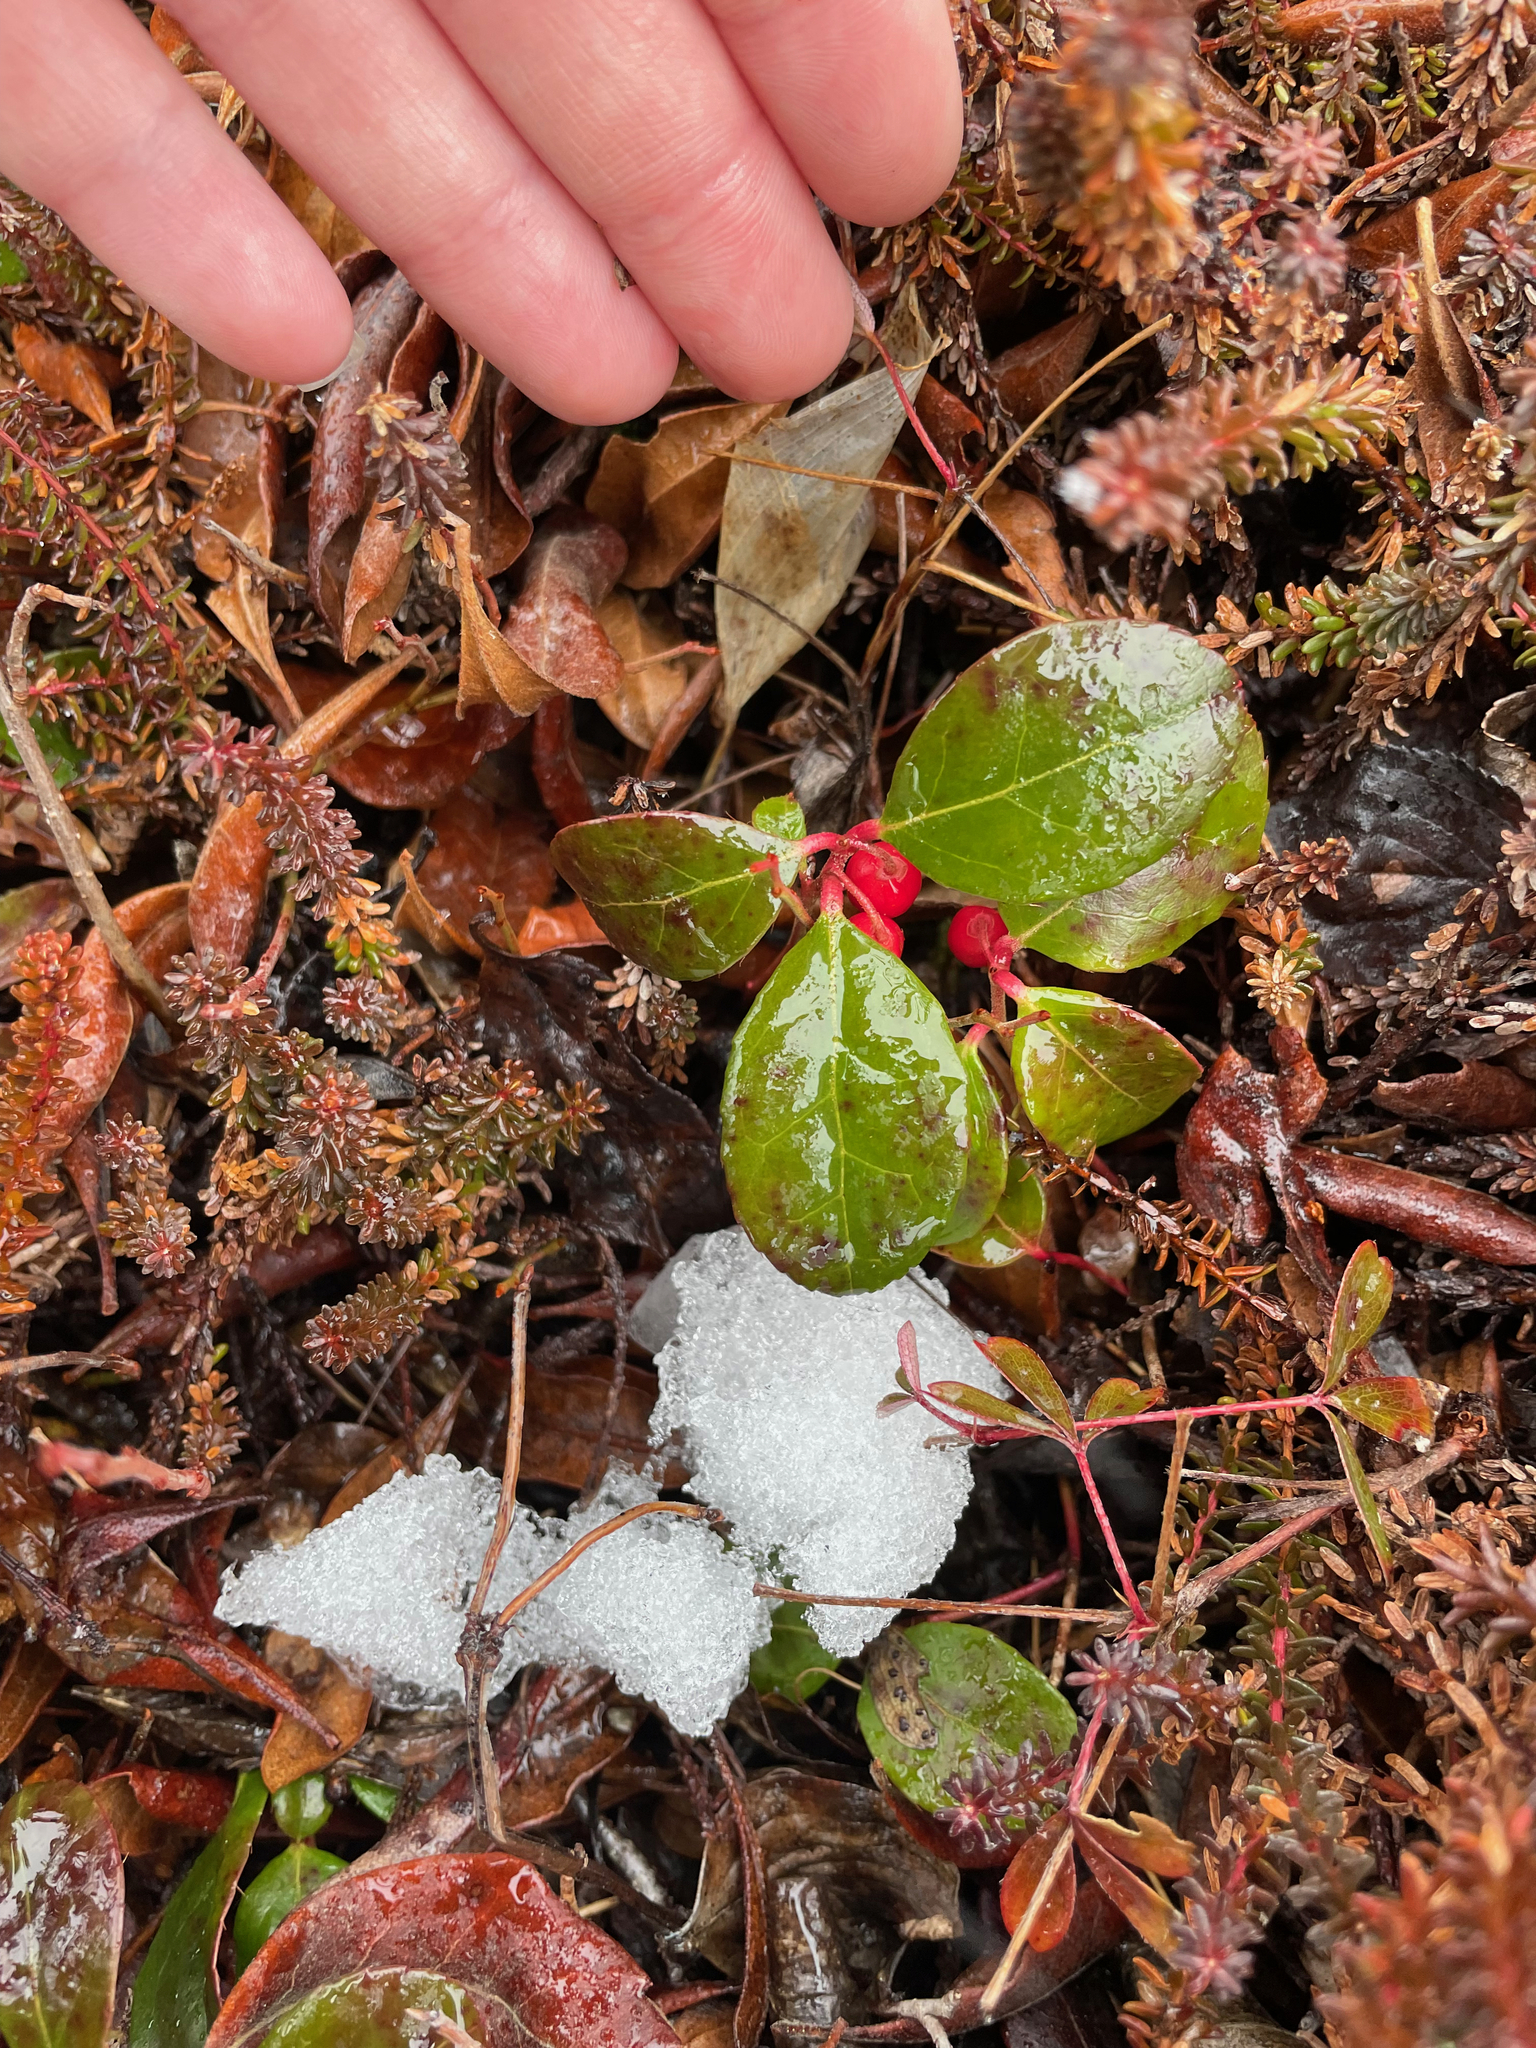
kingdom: Plantae
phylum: Tracheophyta
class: Magnoliopsida
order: Ericales
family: Ericaceae
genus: Gaultheria
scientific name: Gaultheria procumbens
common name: Checkerberry
